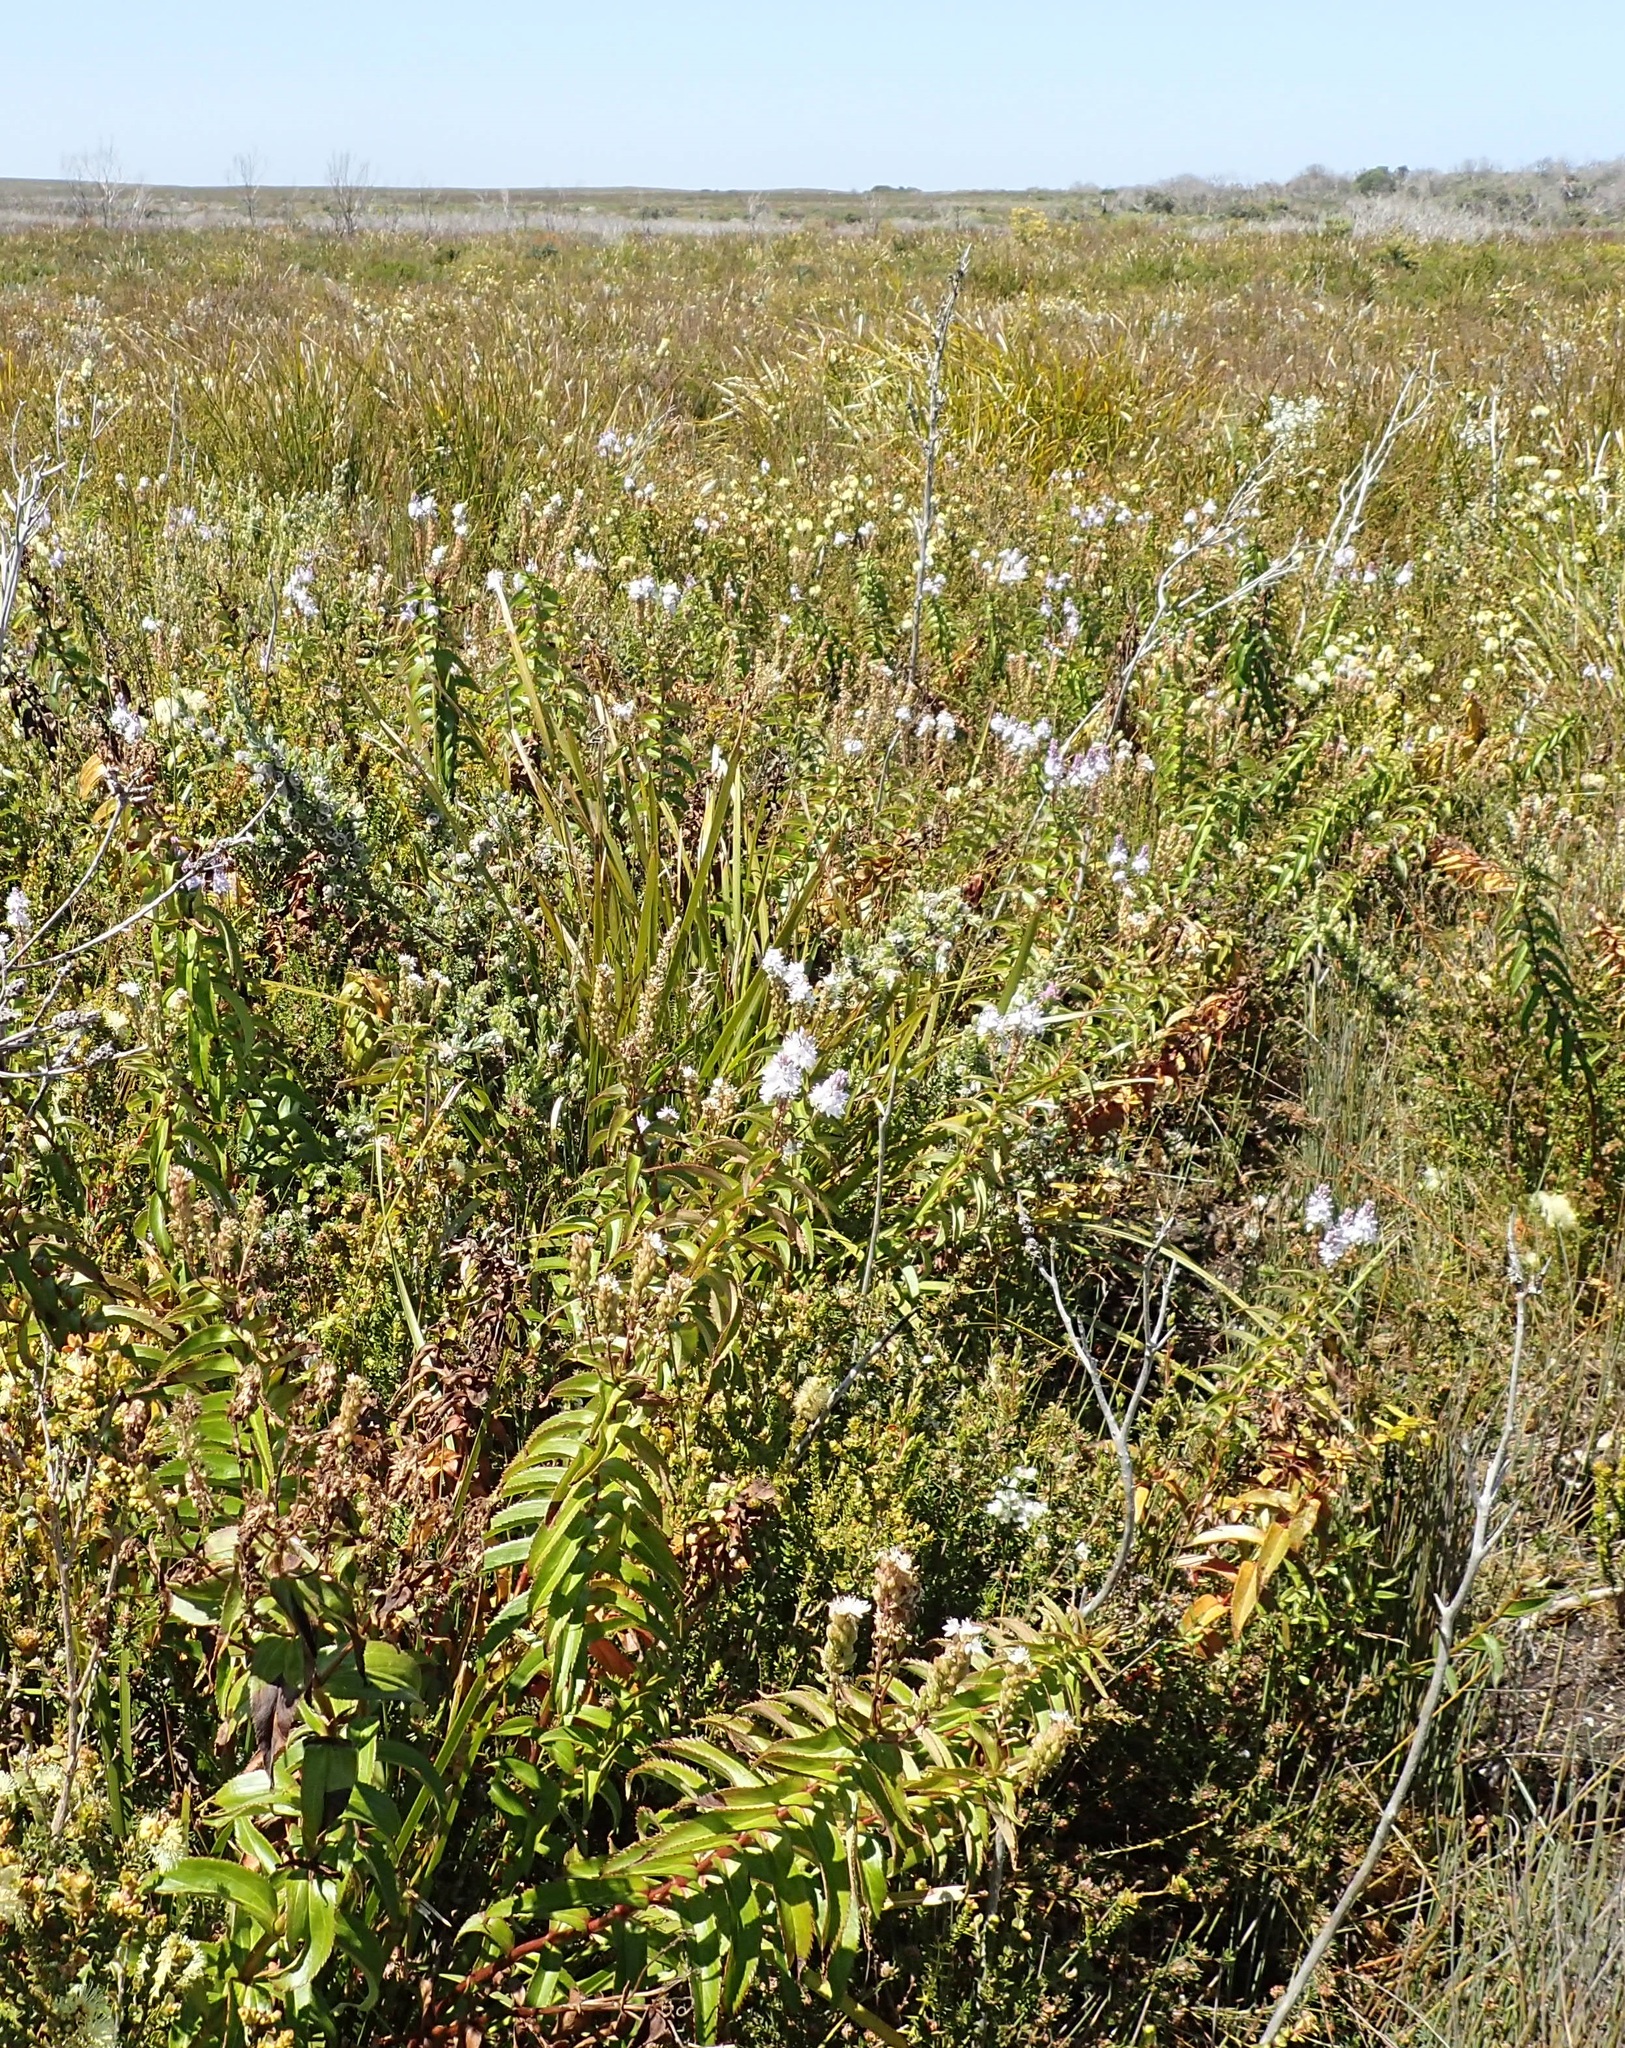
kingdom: Plantae
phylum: Tracheophyta
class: Magnoliopsida
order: Lamiales
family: Plantaginaceae
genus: Veronica
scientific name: Veronica derwentiana
